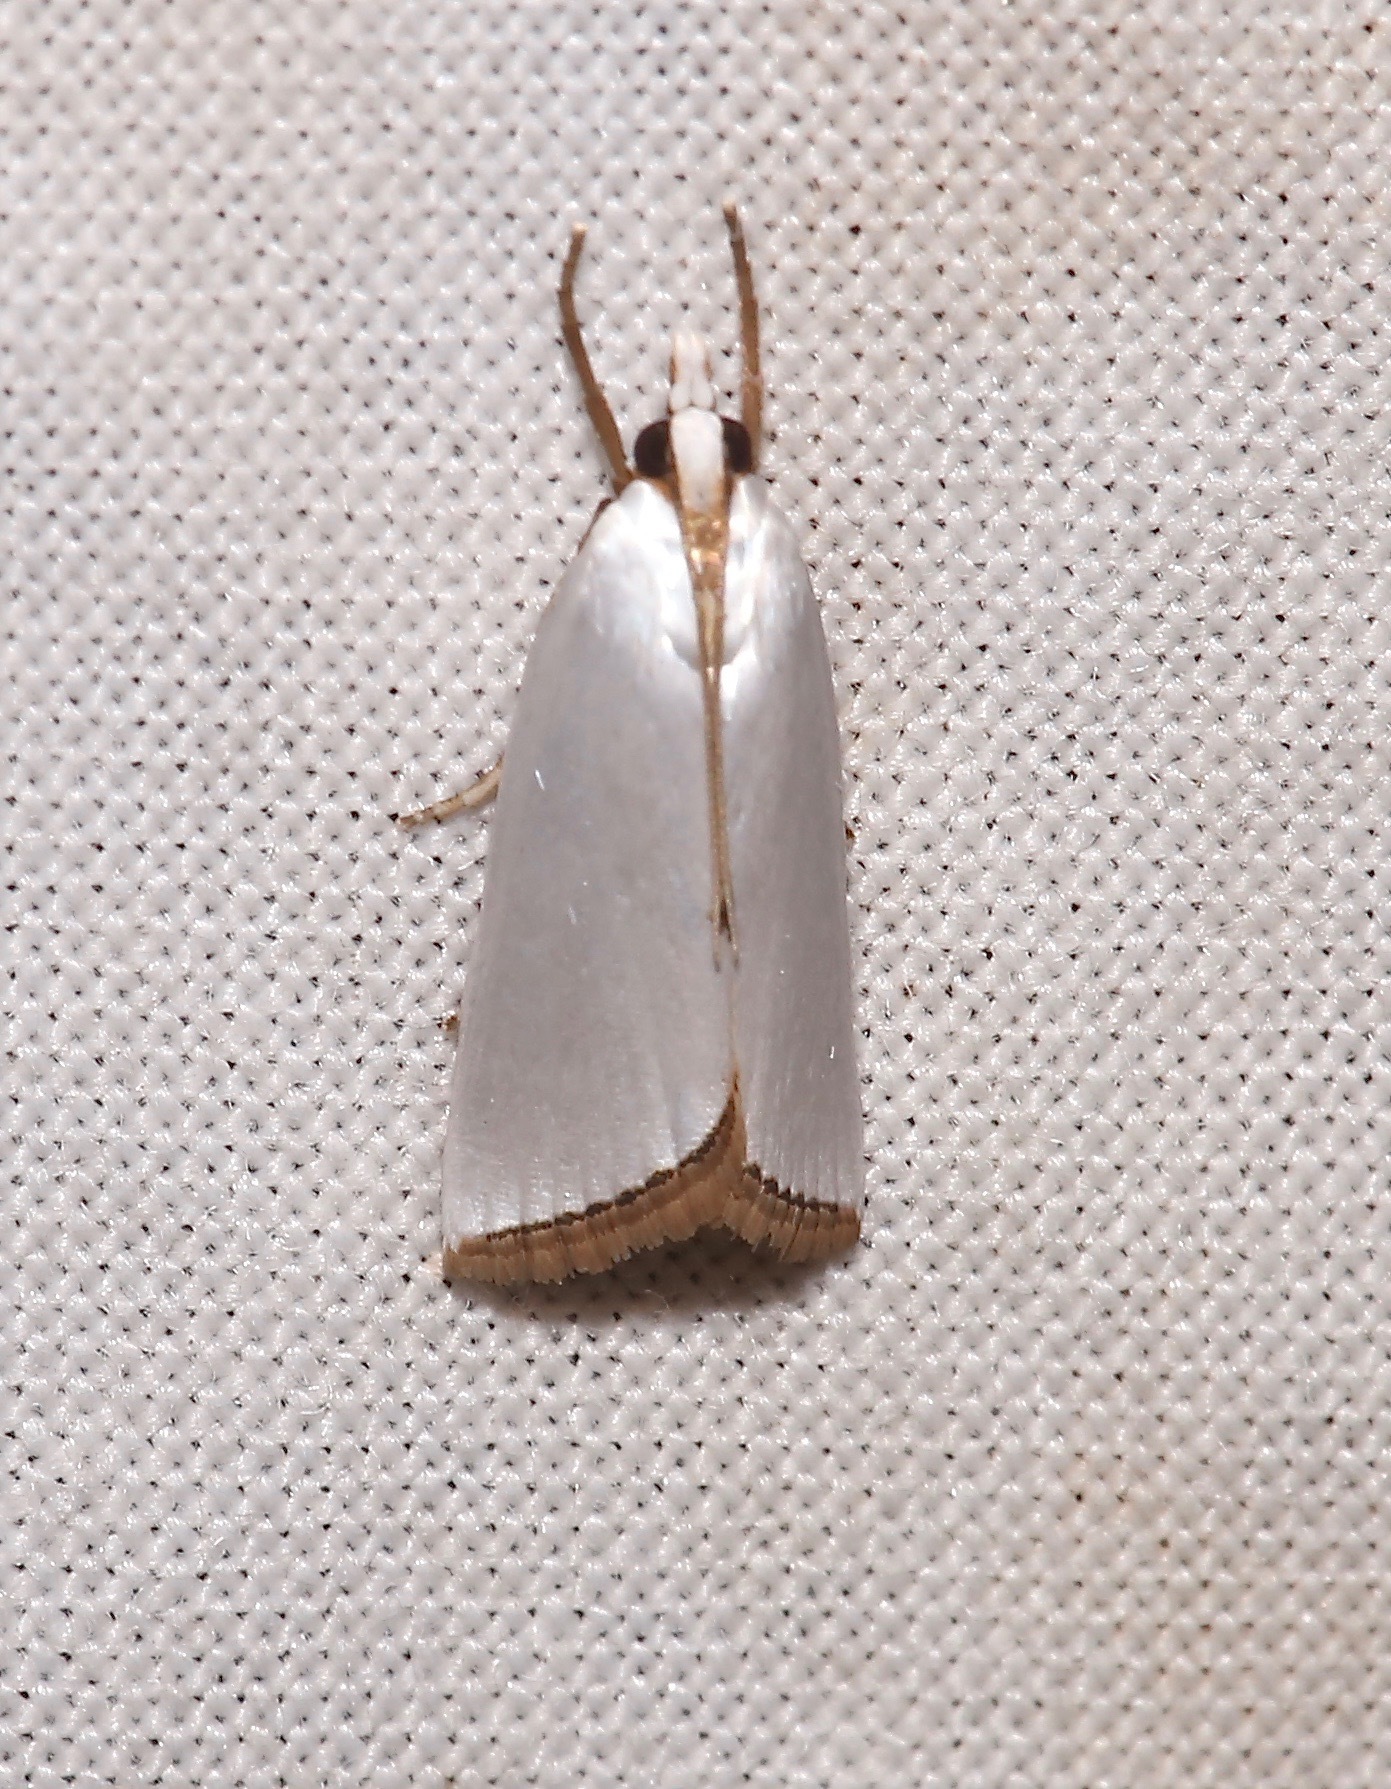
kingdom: Animalia
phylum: Arthropoda
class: Insecta
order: Lepidoptera
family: Crambidae
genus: Argyria
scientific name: Argyria nivalis
